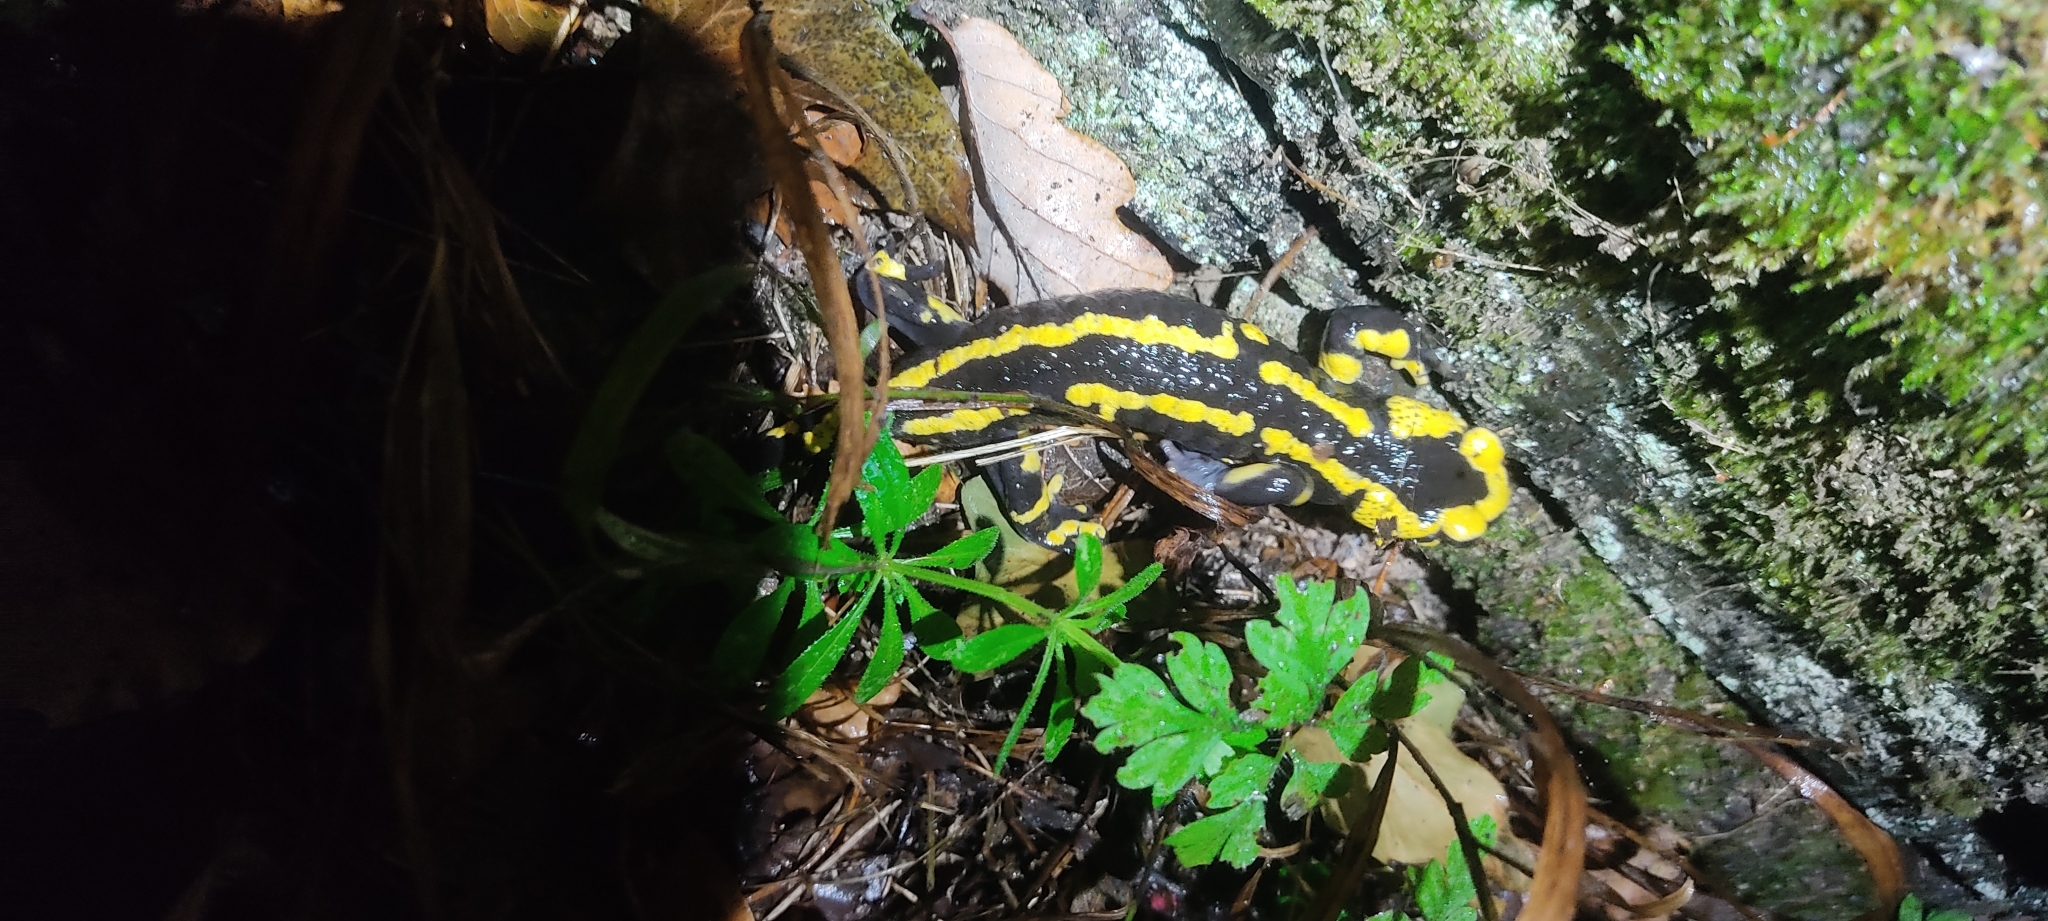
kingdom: Animalia
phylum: Chordata
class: Amphibia
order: Caudata
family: Salamandridae
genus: Salamandra
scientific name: Salamandra salamandra
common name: Fire salamander
